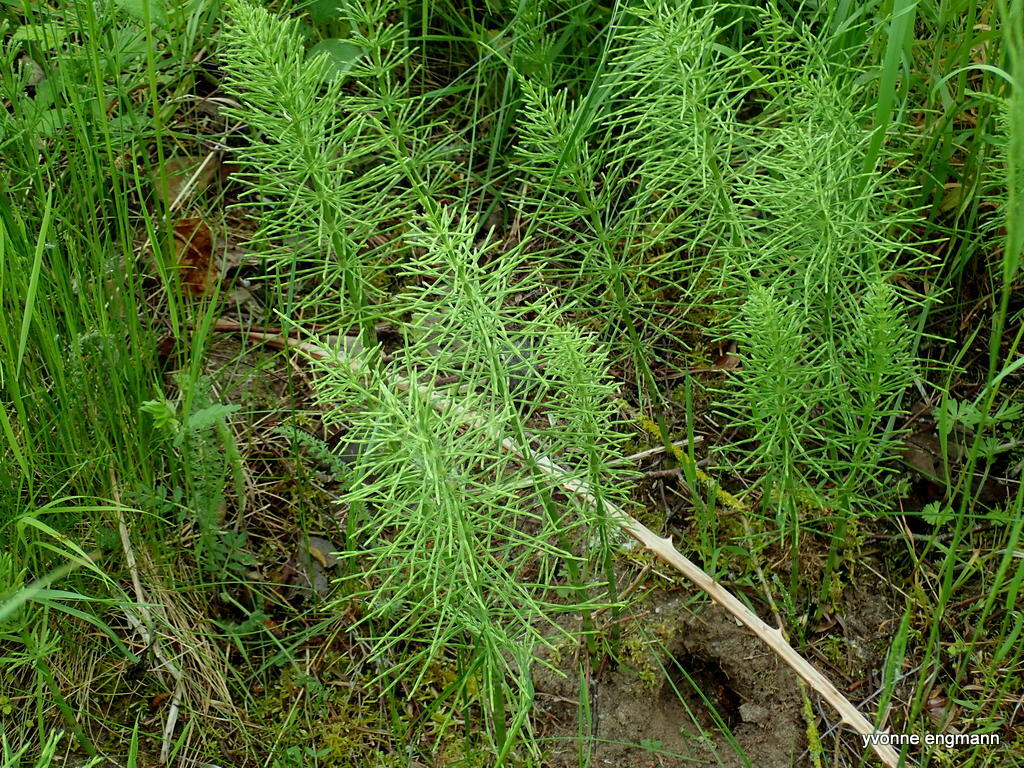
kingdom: Plantae
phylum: Tracheophyta
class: Polypodiopsida
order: Equisetales
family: Equisetaceae
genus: Equisetum
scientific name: Equisetum arvense
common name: Field horsetail
